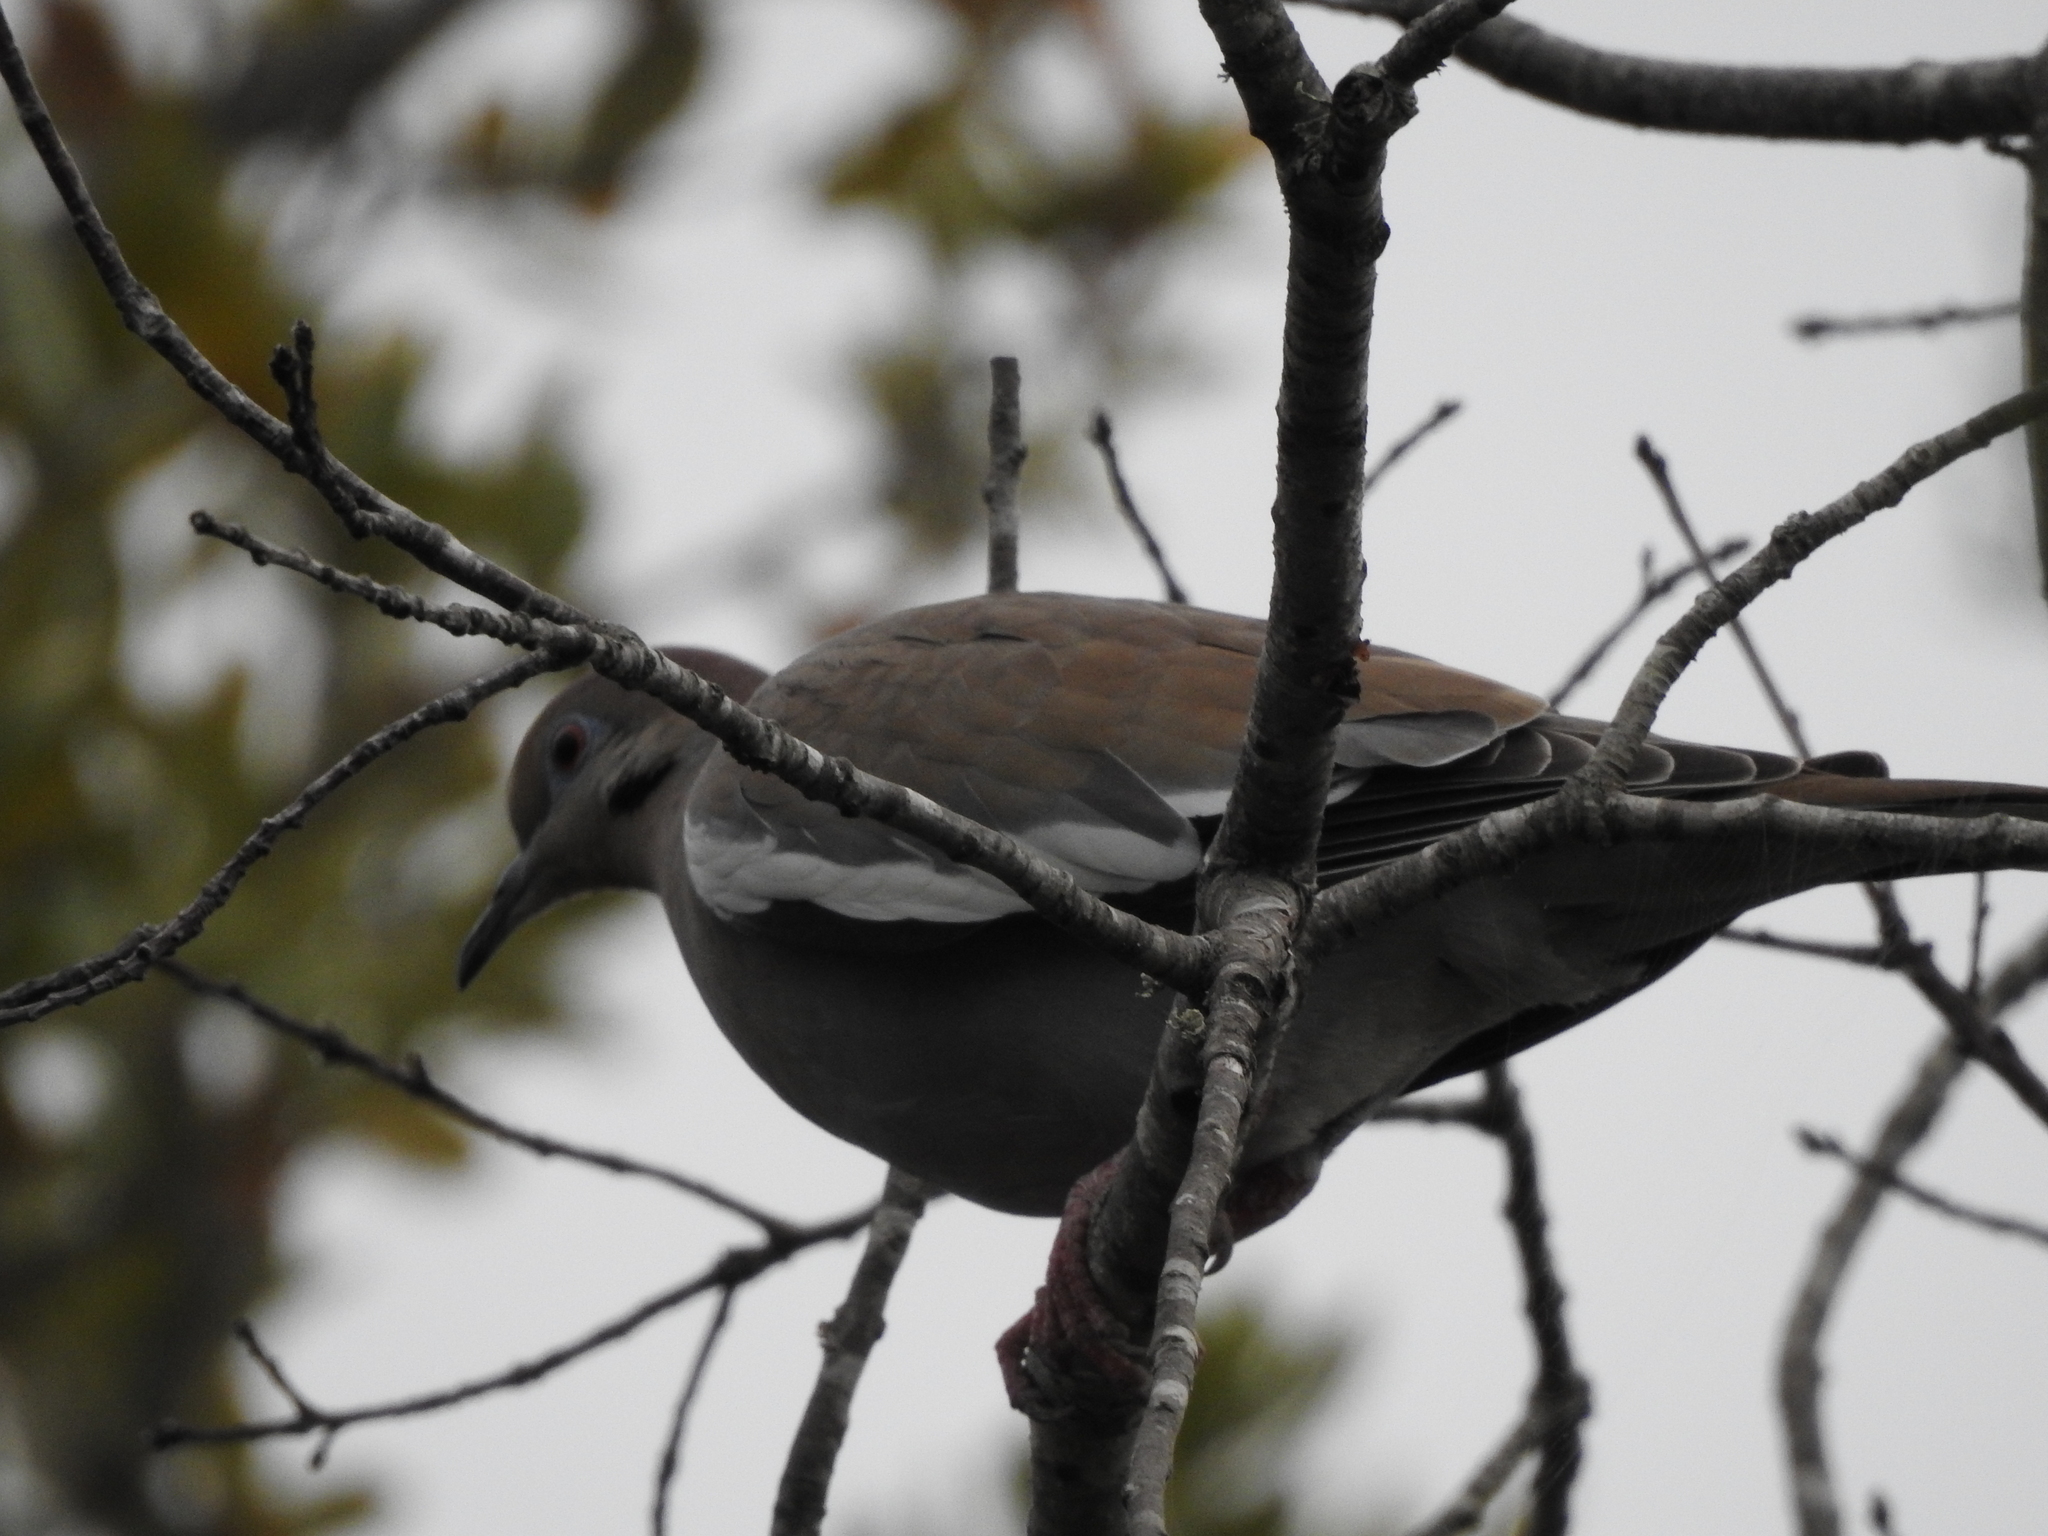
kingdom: Animalia
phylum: Chordata
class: Aves
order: Columbiformes
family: Columbidae
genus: Zenaida
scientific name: Zenaida asiatica
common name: White-winged dove
